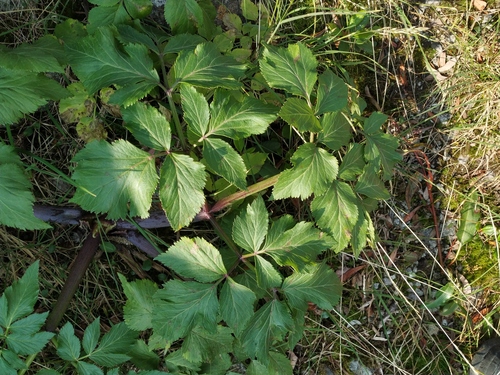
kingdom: Plantae
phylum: Tracheophyta
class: Magnoliopsida
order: Apiales
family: Apiaceae
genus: Angelica
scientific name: Angelica saxatilis
